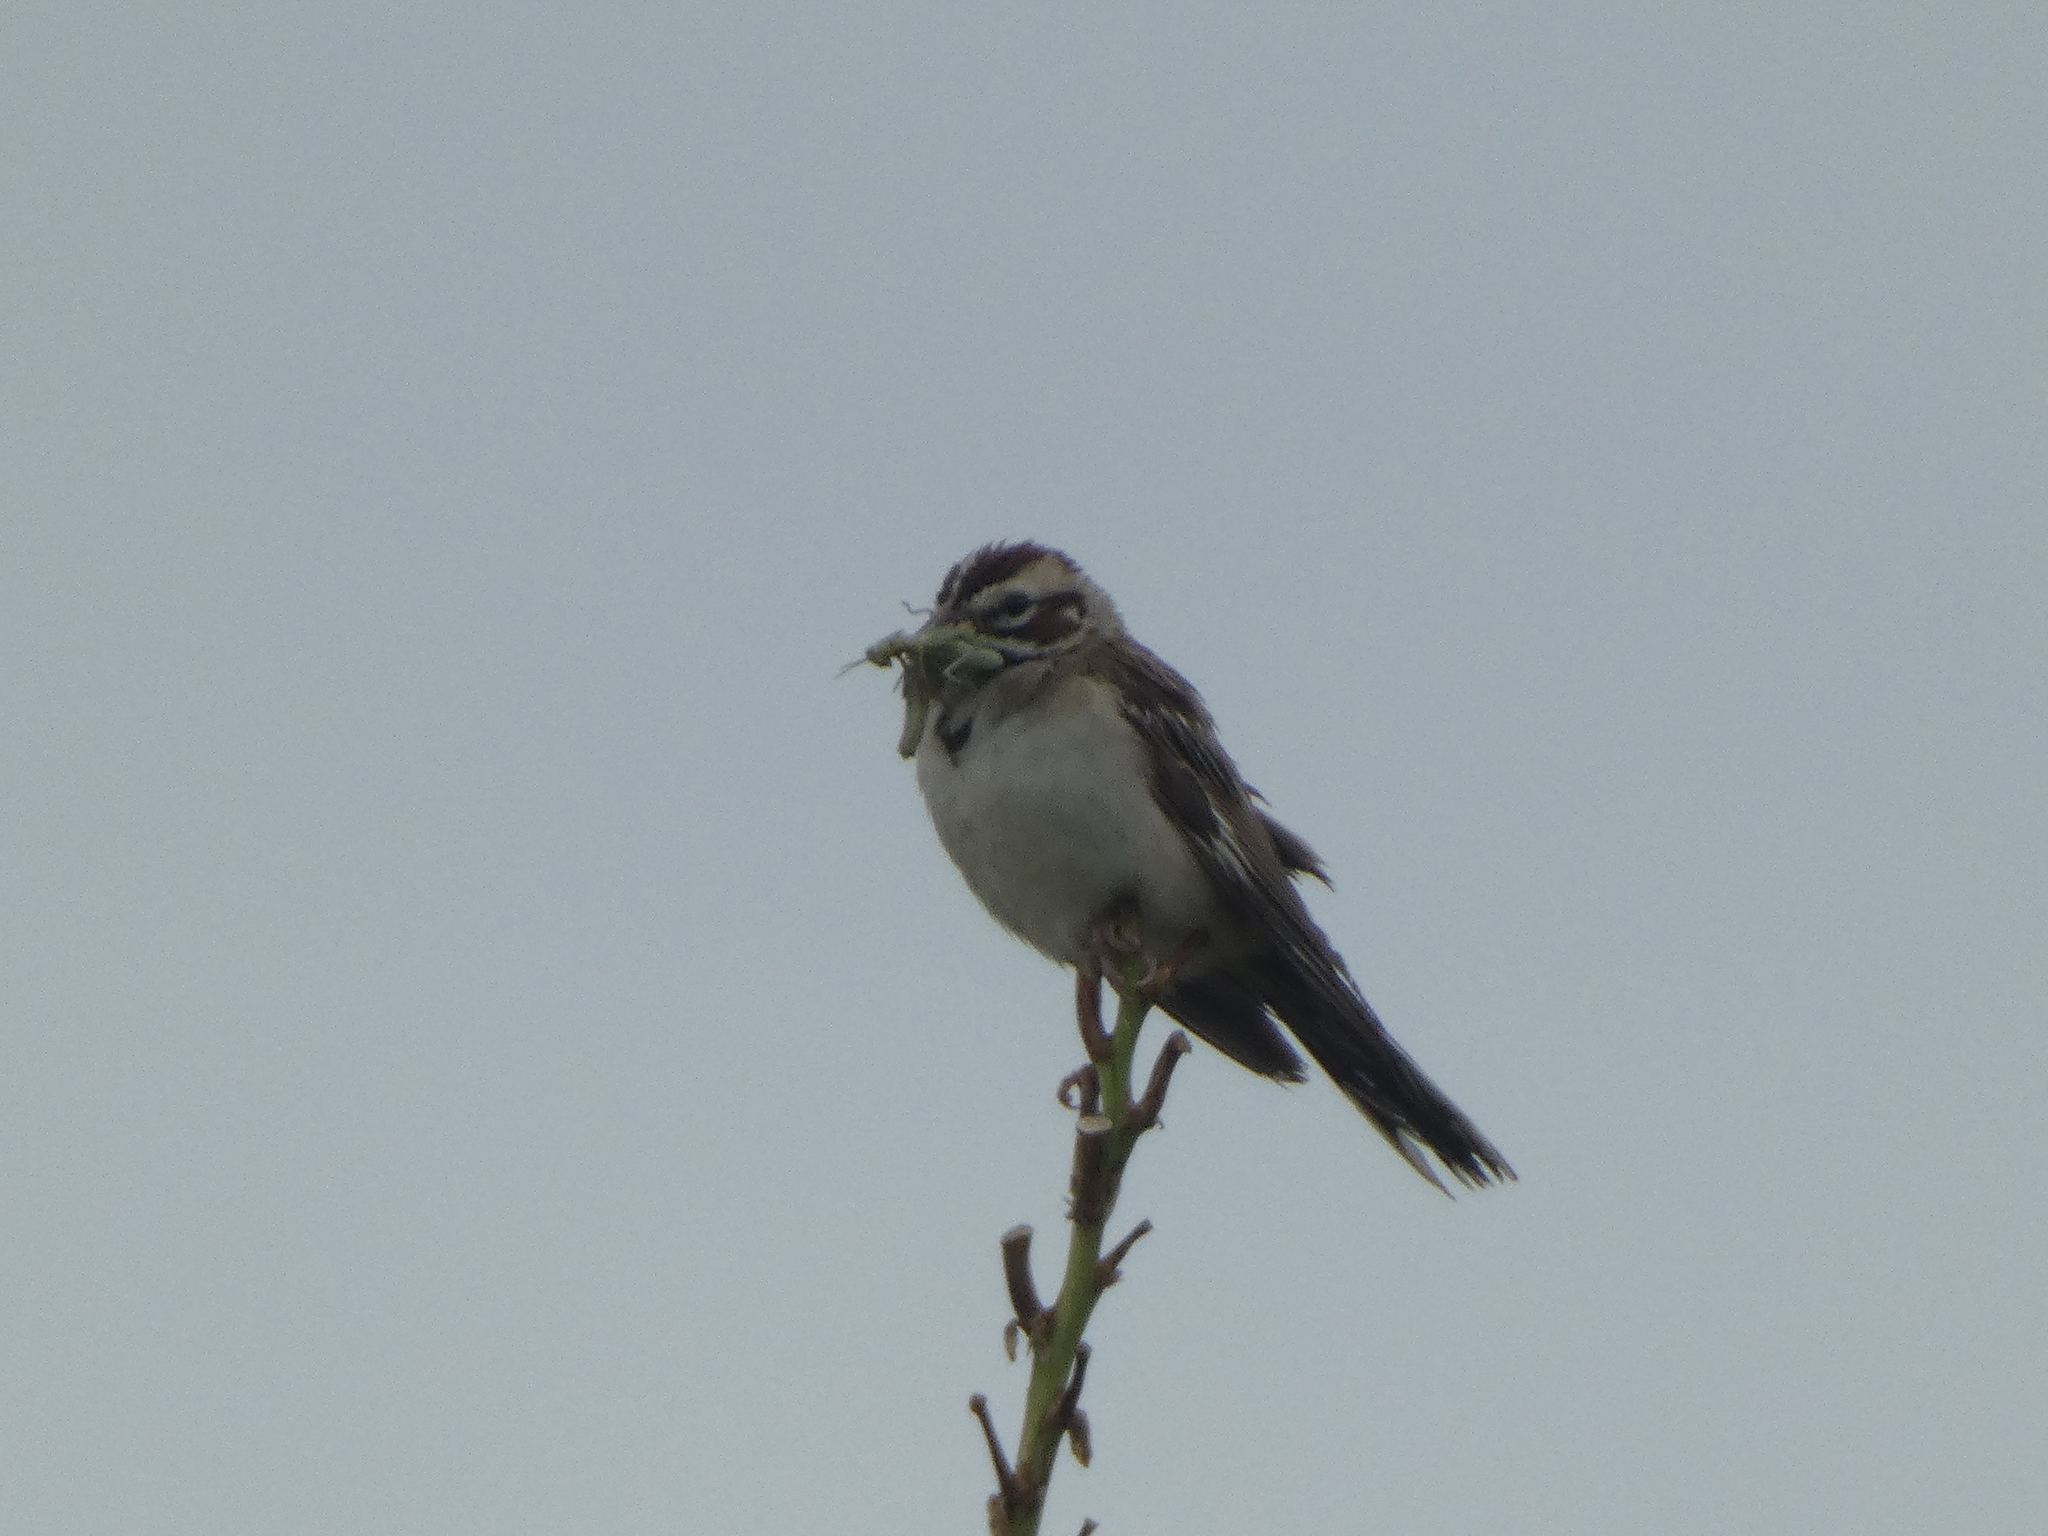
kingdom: Animalia
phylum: Chordata
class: Aves
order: Passeriformes
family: Passerellidae
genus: Chondestes
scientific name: Chondestes grammacus
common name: Lark sparrow
